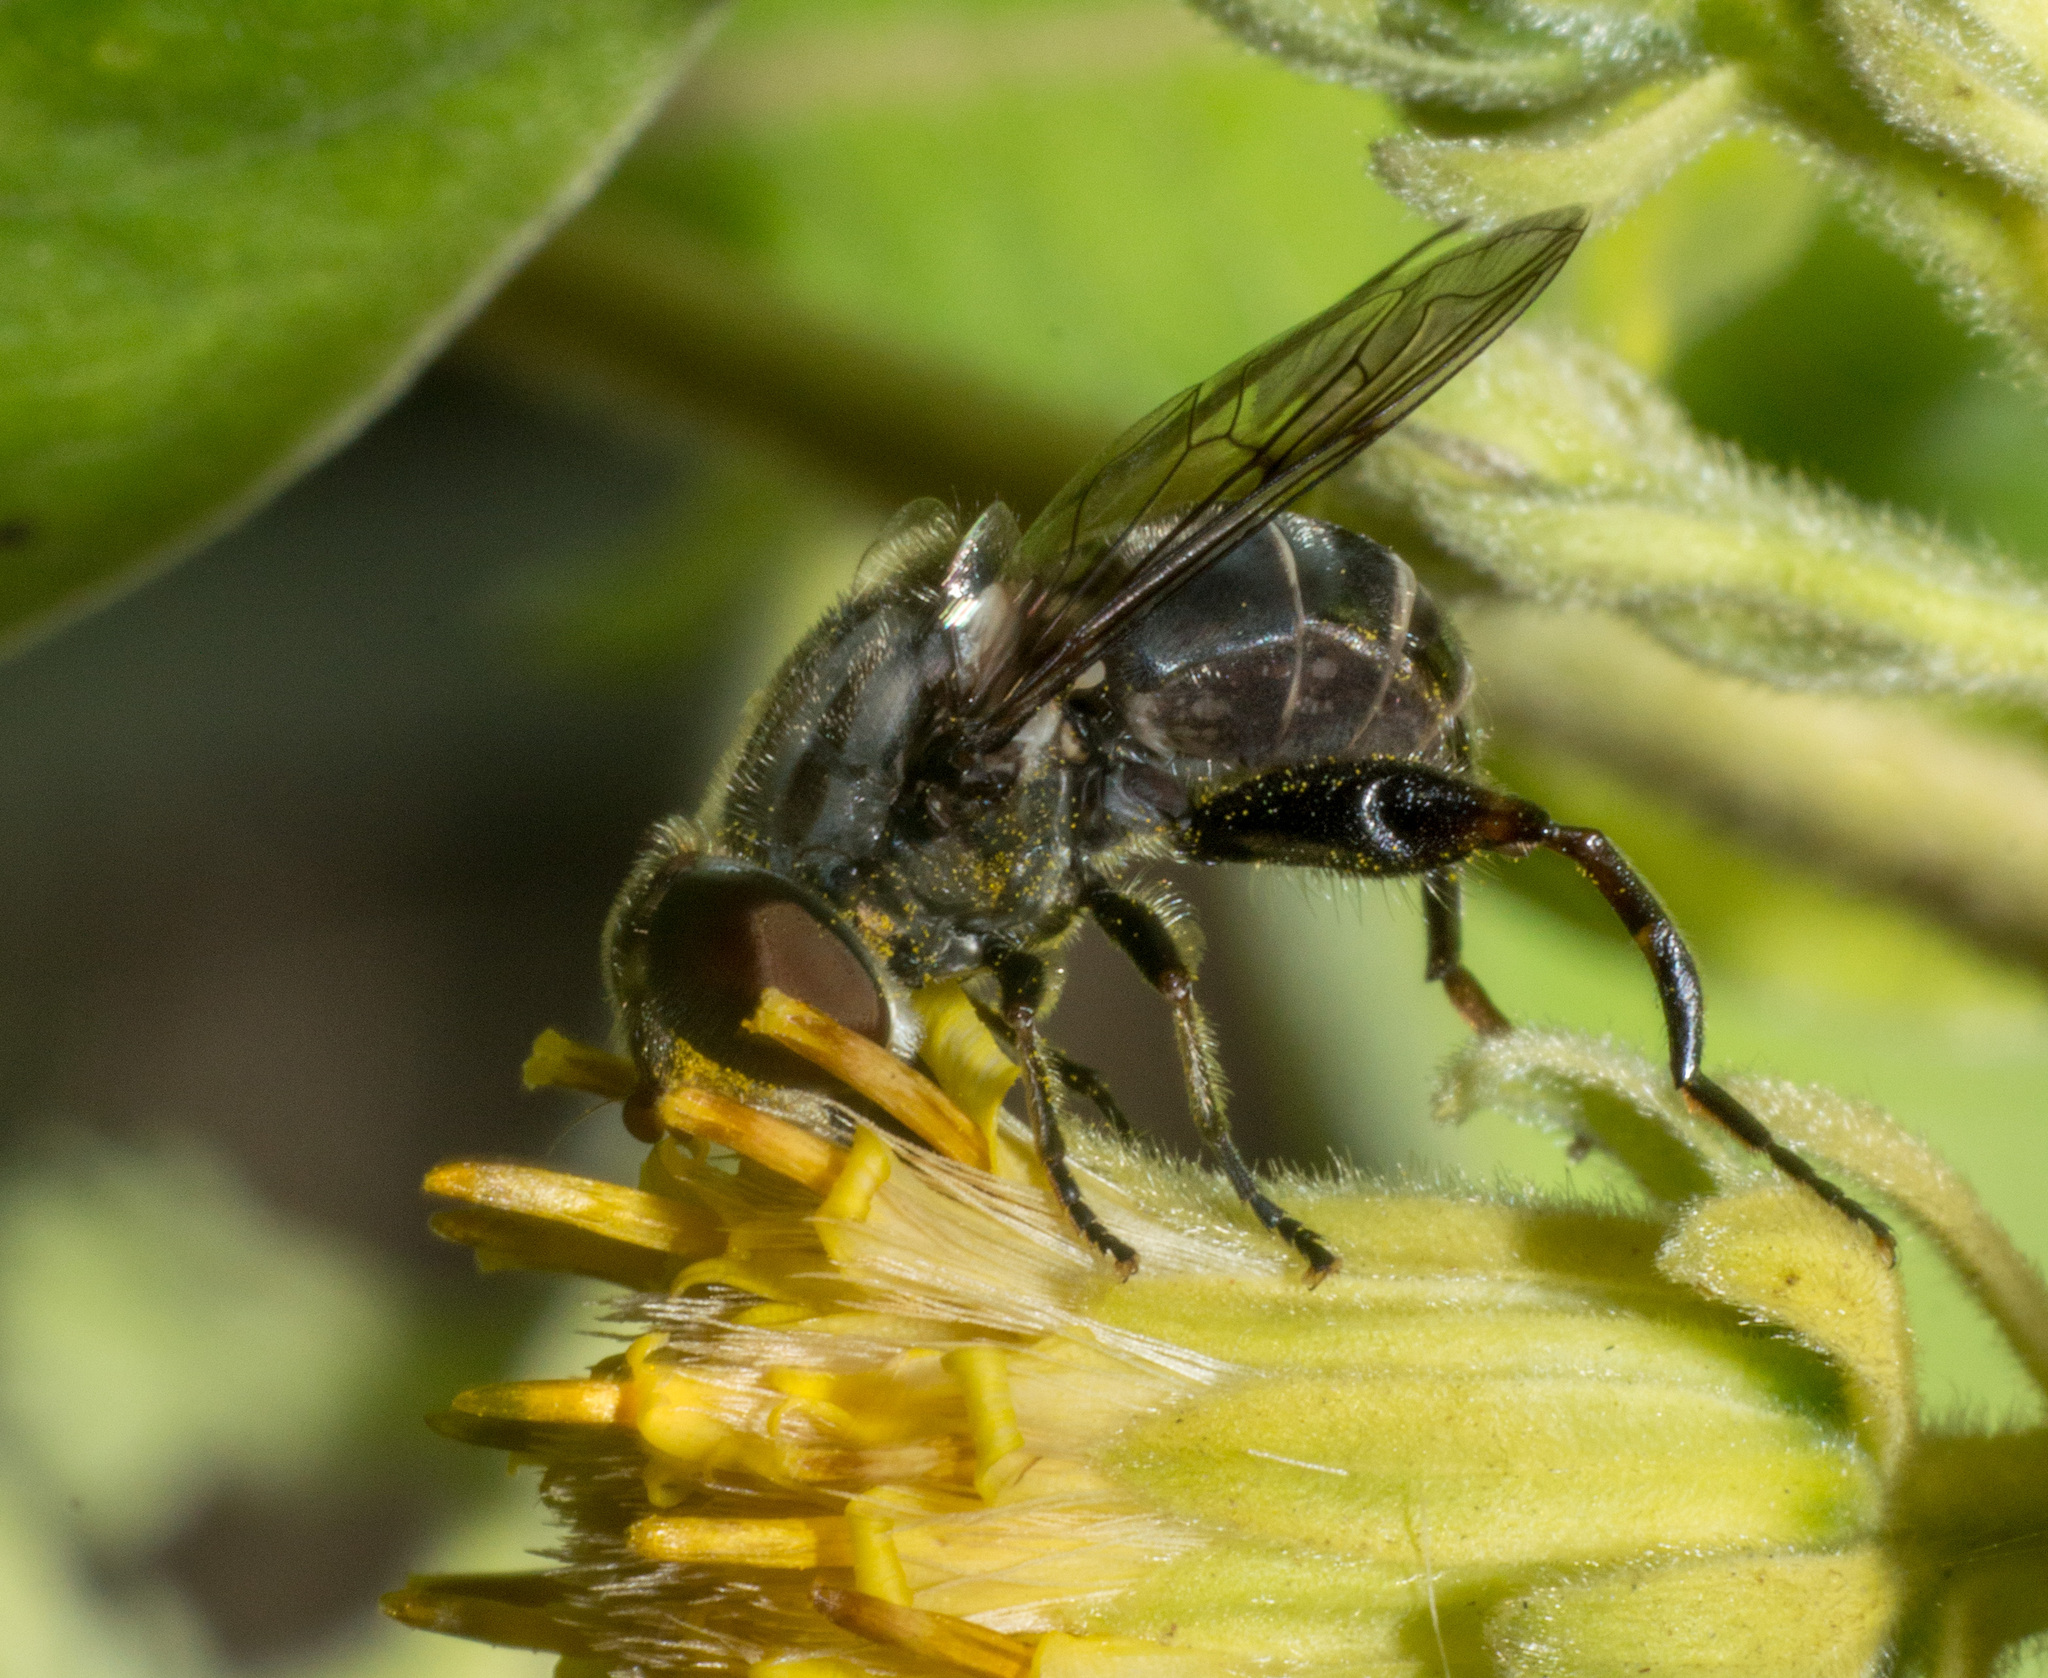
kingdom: Animalia
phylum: Arthropoda
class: Insecta
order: Diptera
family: Syrphidae
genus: Palpada
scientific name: Palpada furcata
